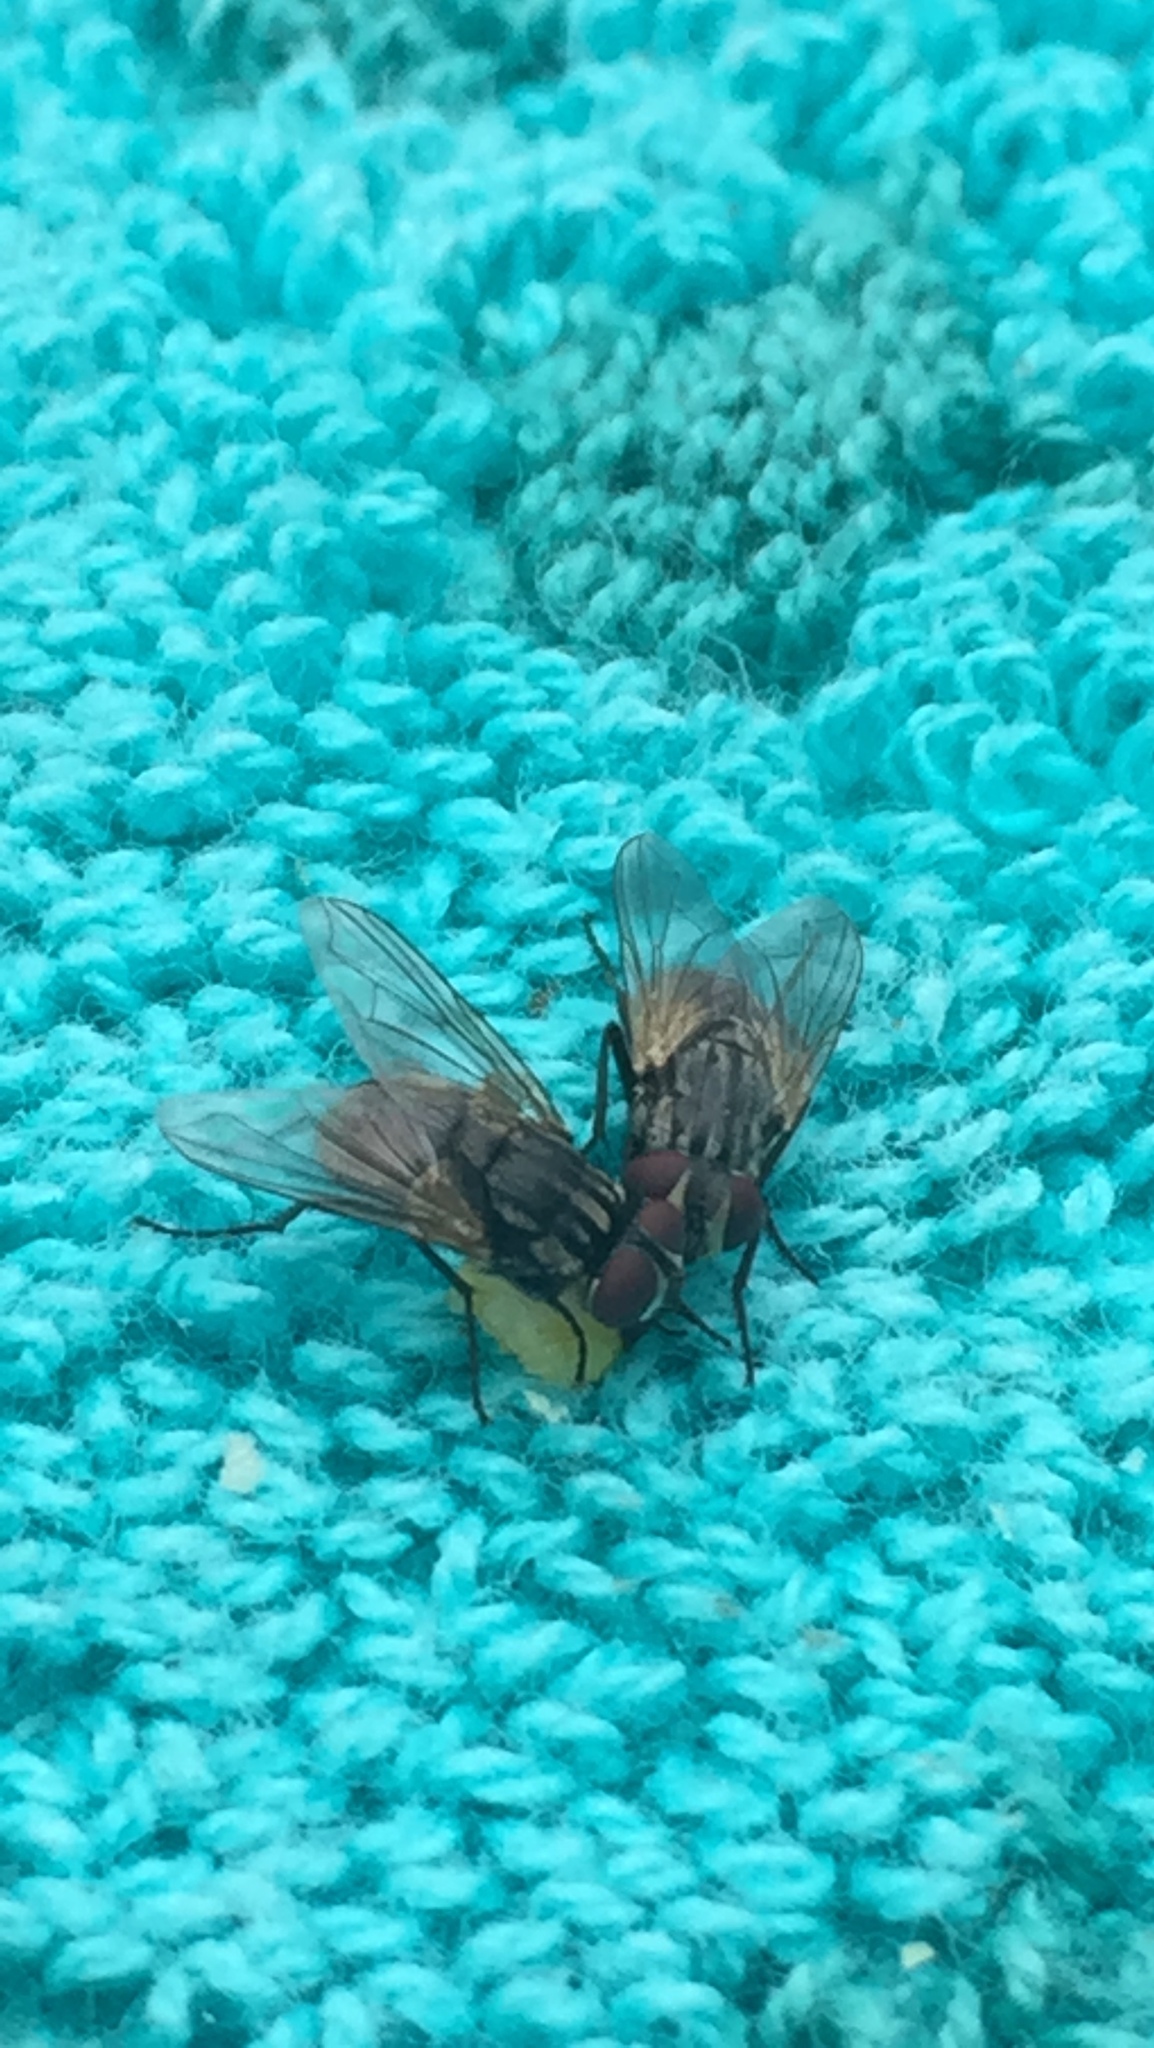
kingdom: Animalia
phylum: Arthropoda
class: Insecta
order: Diptera
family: Muscidae
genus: Musca
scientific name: Musca domestica
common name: House fly
